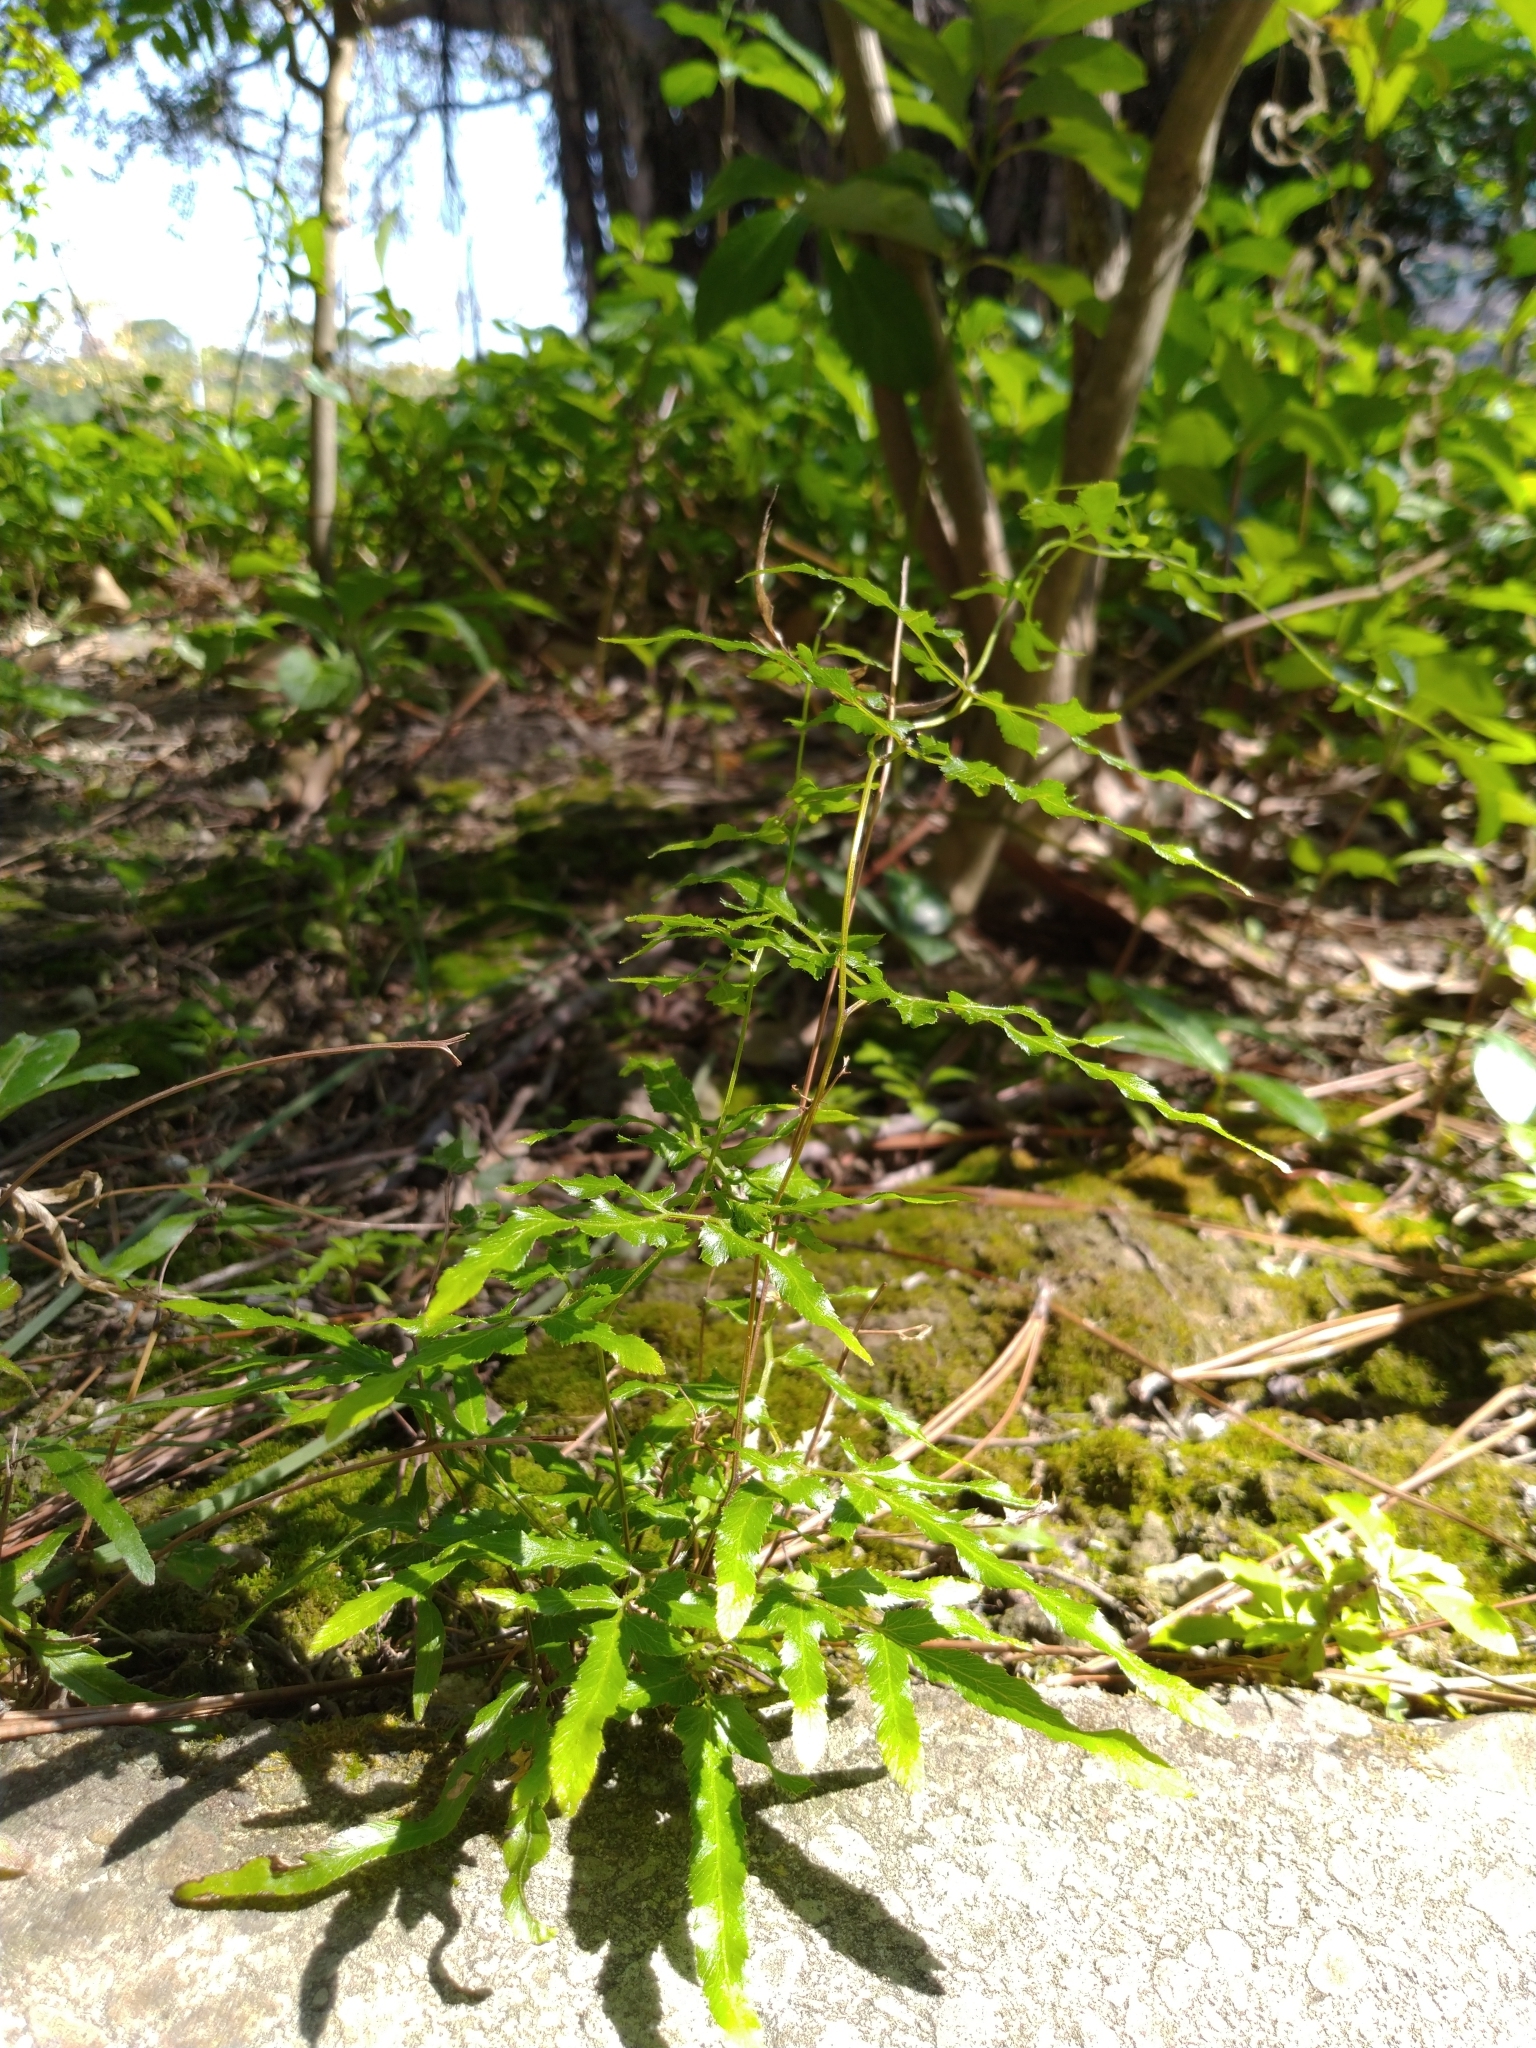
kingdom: Plantae
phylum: Tracheophyta
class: Polypodiopsida
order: Schizaeales
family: Lygodiaceae
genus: Lygodium
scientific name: Lygodium japonicum
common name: Japanese climbing fern
